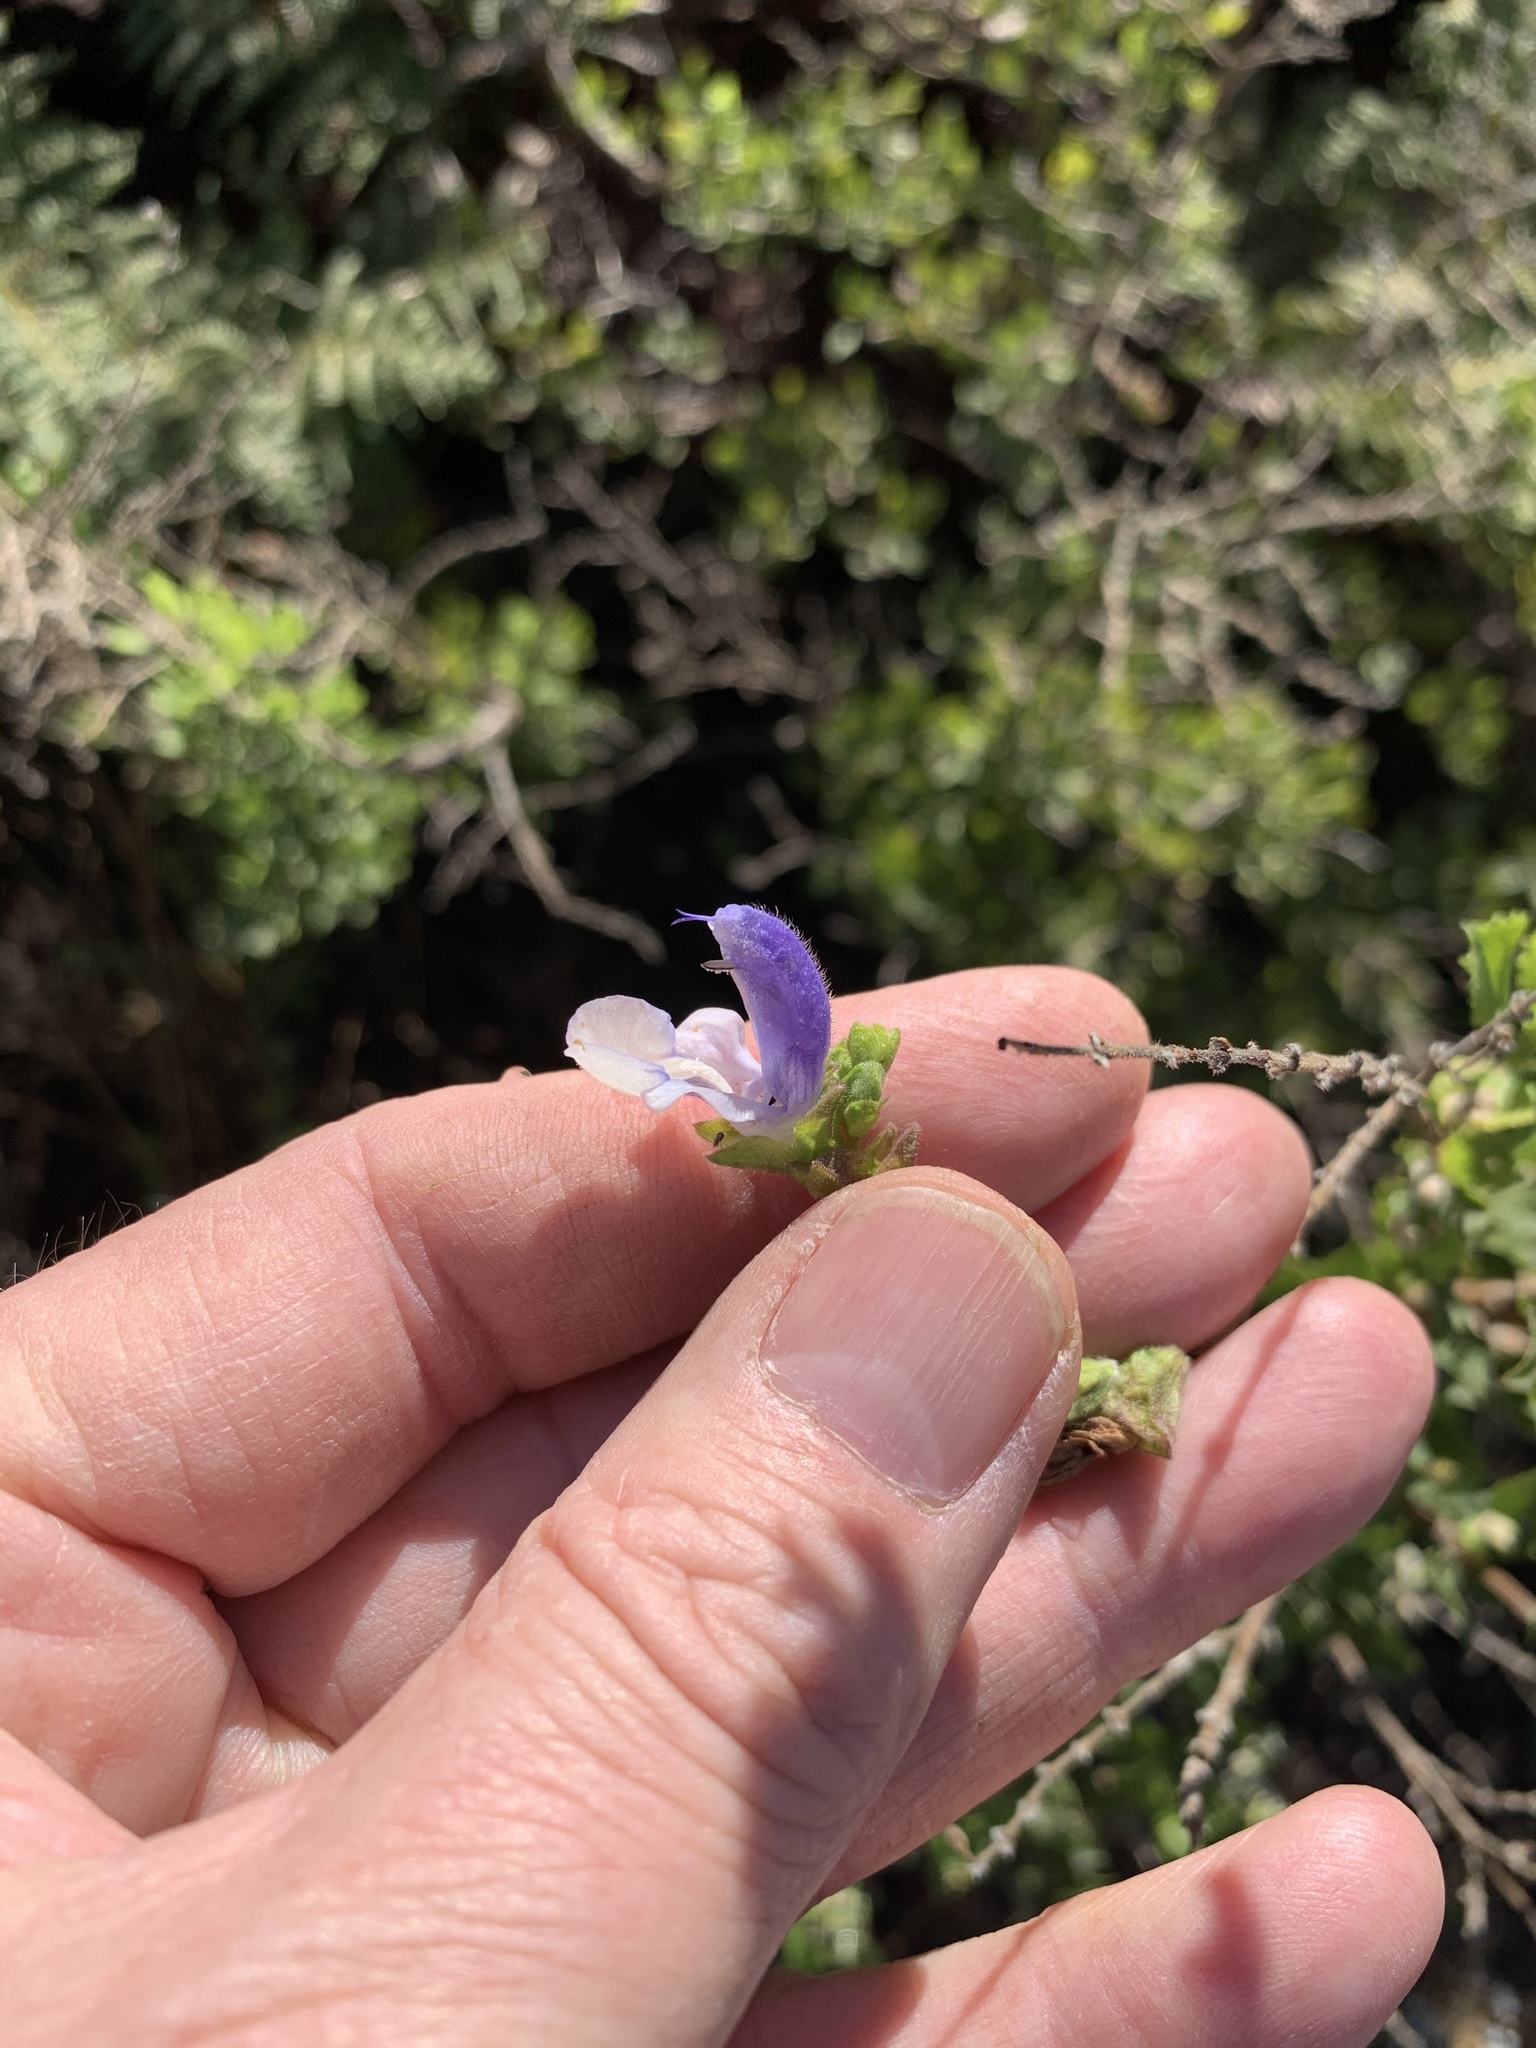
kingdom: Plantae
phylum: Tracheophyta
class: Magnoliopsida
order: Lamiales
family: Lamiaceae
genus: Salvia
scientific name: Salvia chamelaeagnea
